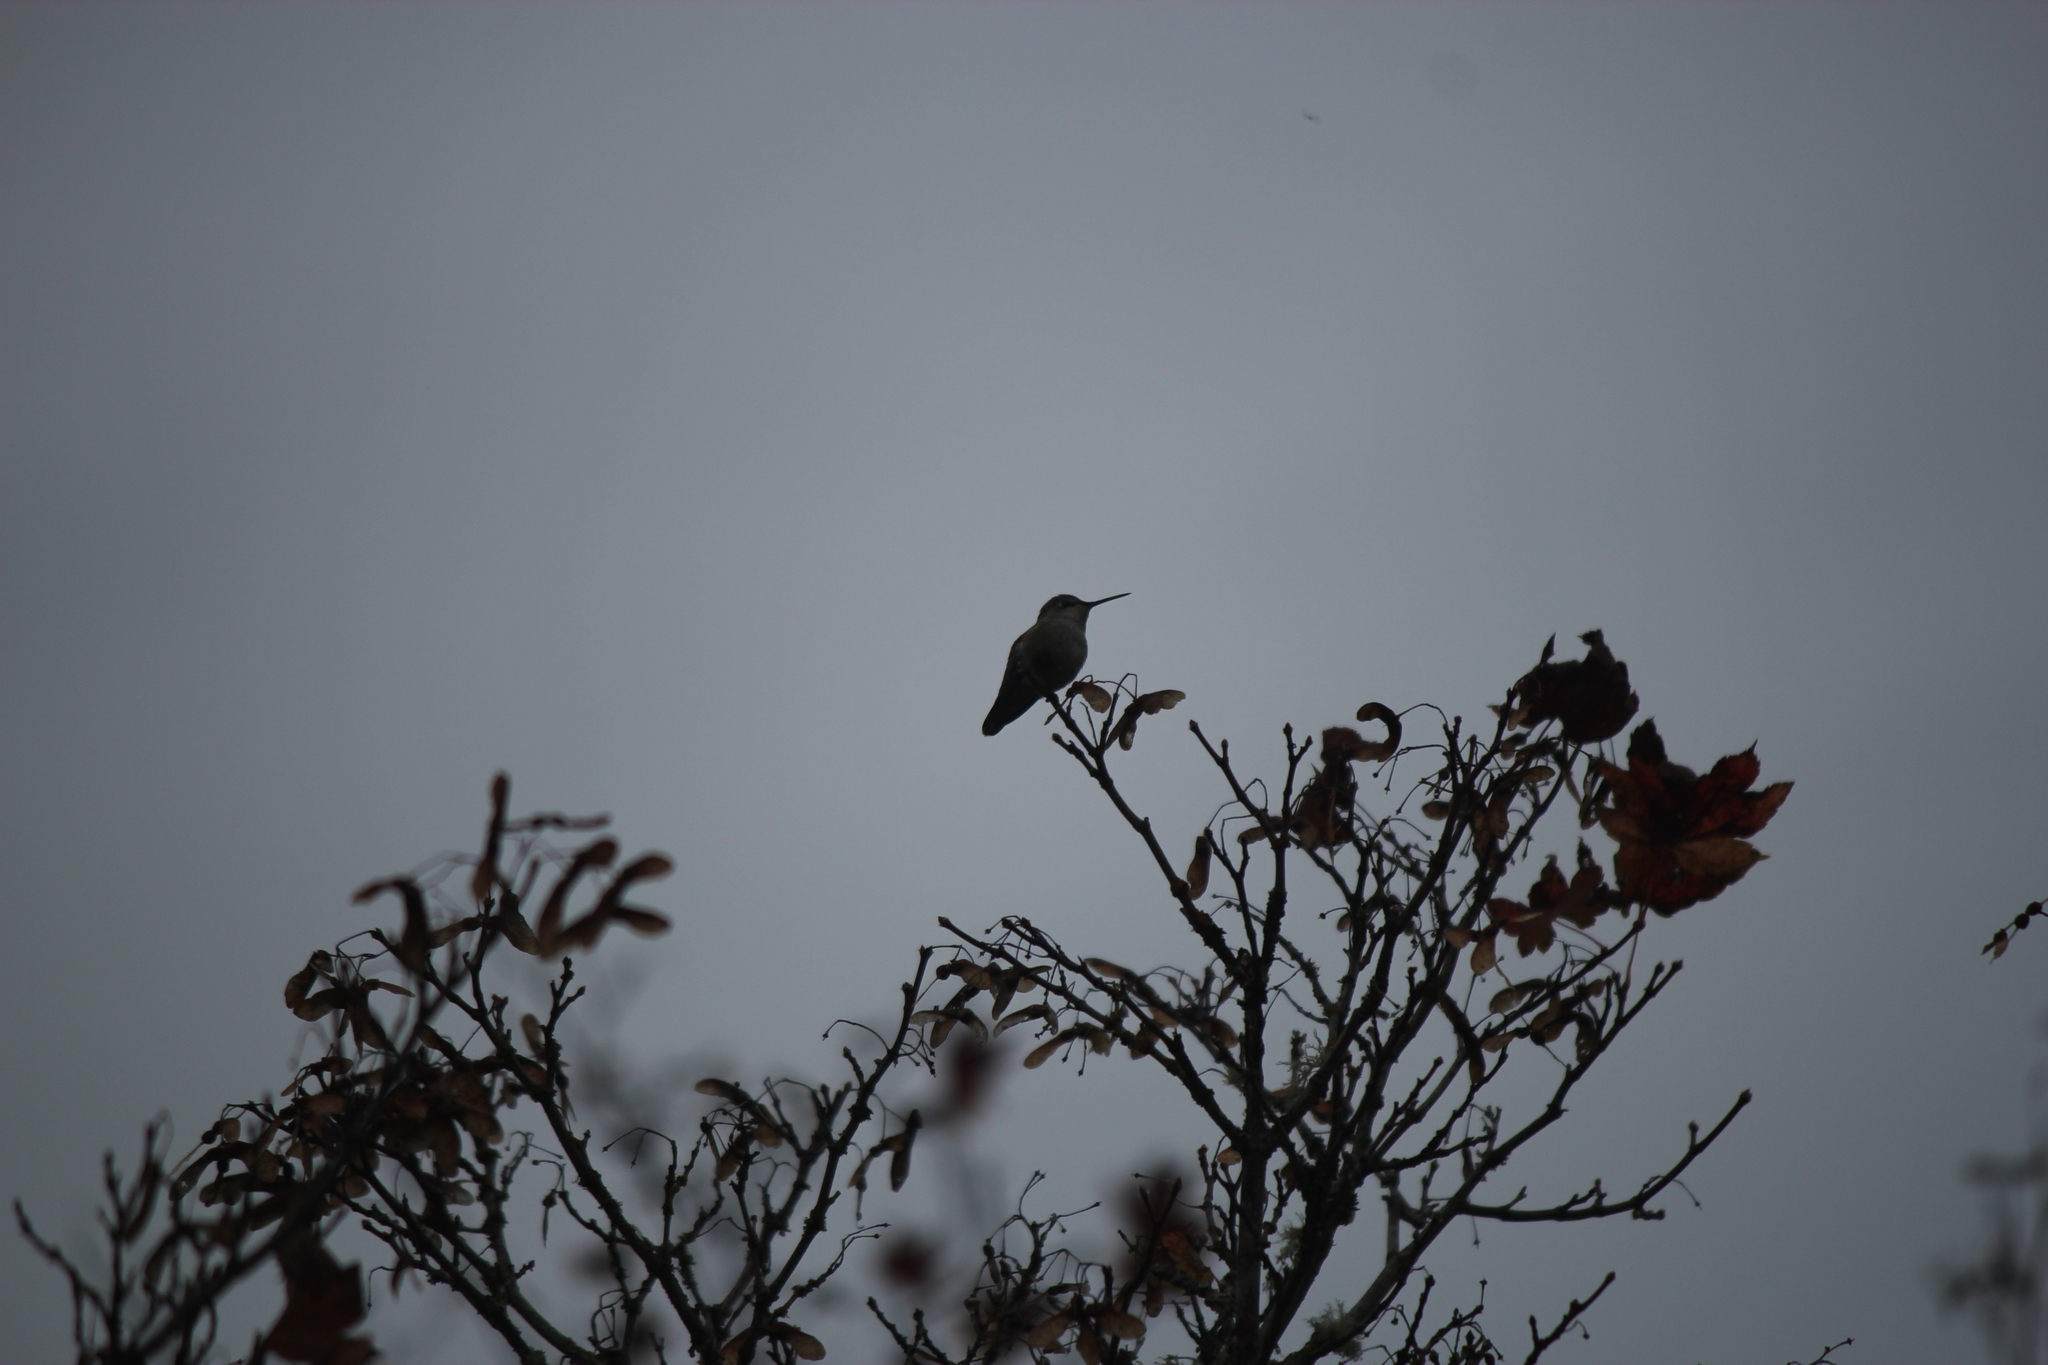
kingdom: Animalia
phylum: Chordata
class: Aves
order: Apodiformes
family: Trochilidae
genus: Calypte
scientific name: Calypte anna
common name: Anna's hummingbird
